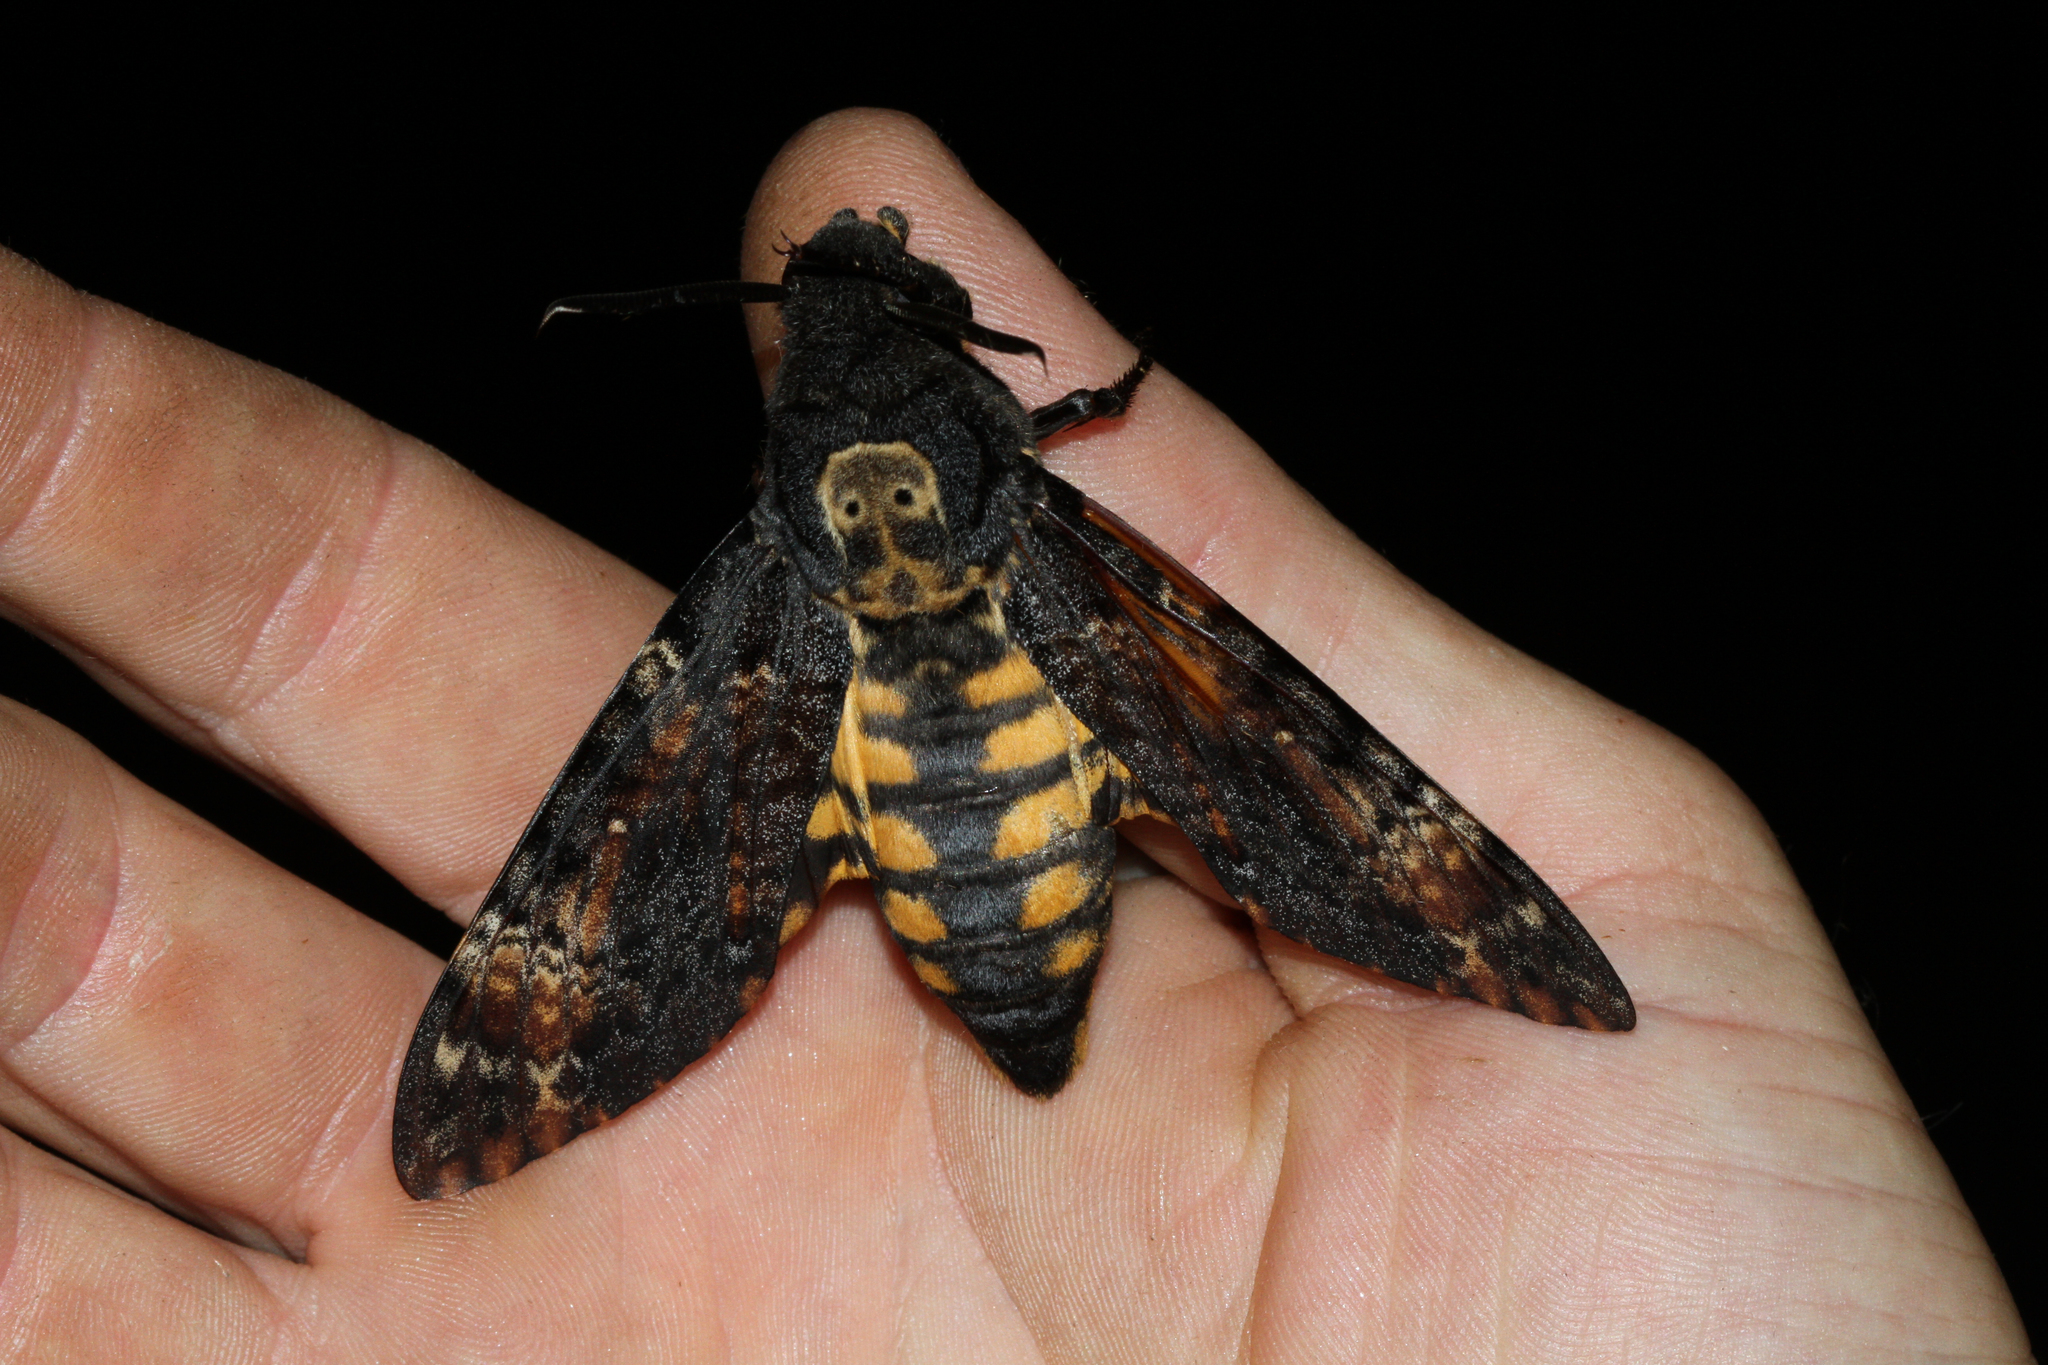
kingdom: Animalia
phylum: Arthropoda
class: Insecta
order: Lepidoptera
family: Sphingidae
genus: Acherontia
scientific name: Acherontia atropos
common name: Death's-head hawk moth
